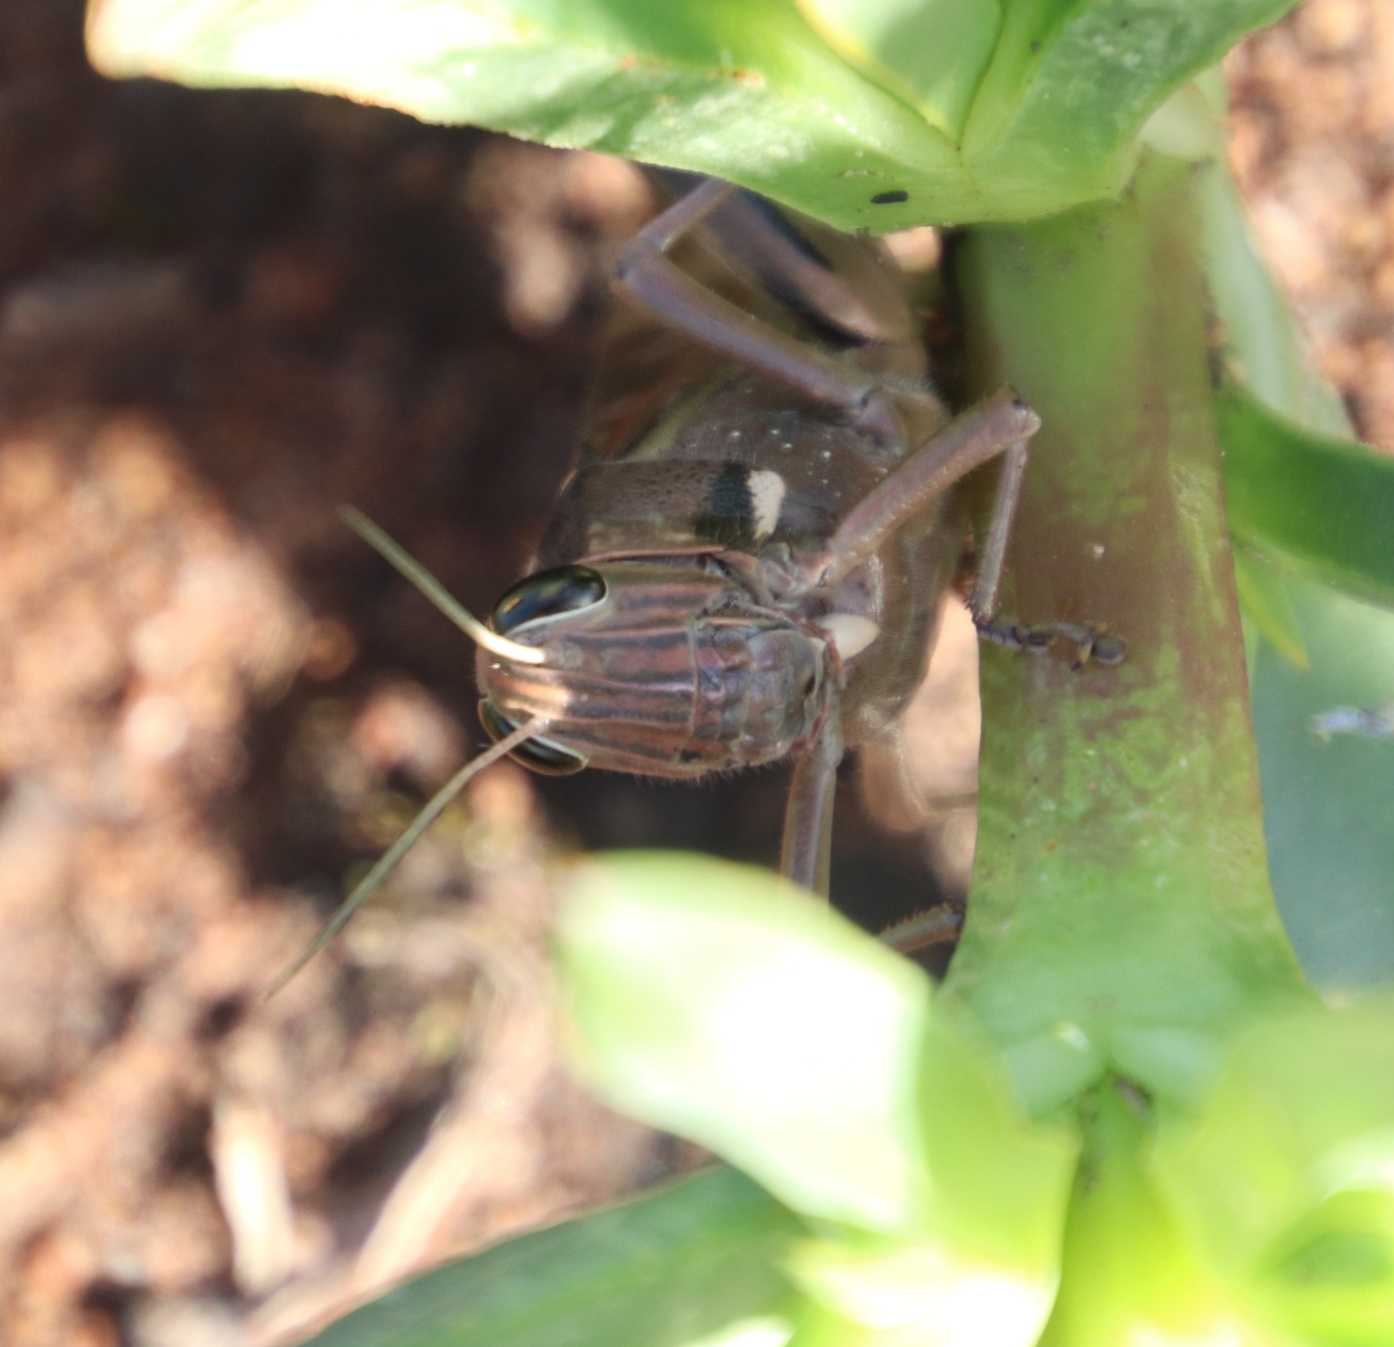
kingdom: Animalia
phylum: Arthropoda
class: Insecta
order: Orthoptera
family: Acrididae
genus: Acanthacris
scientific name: Acanthacris ruficornis
